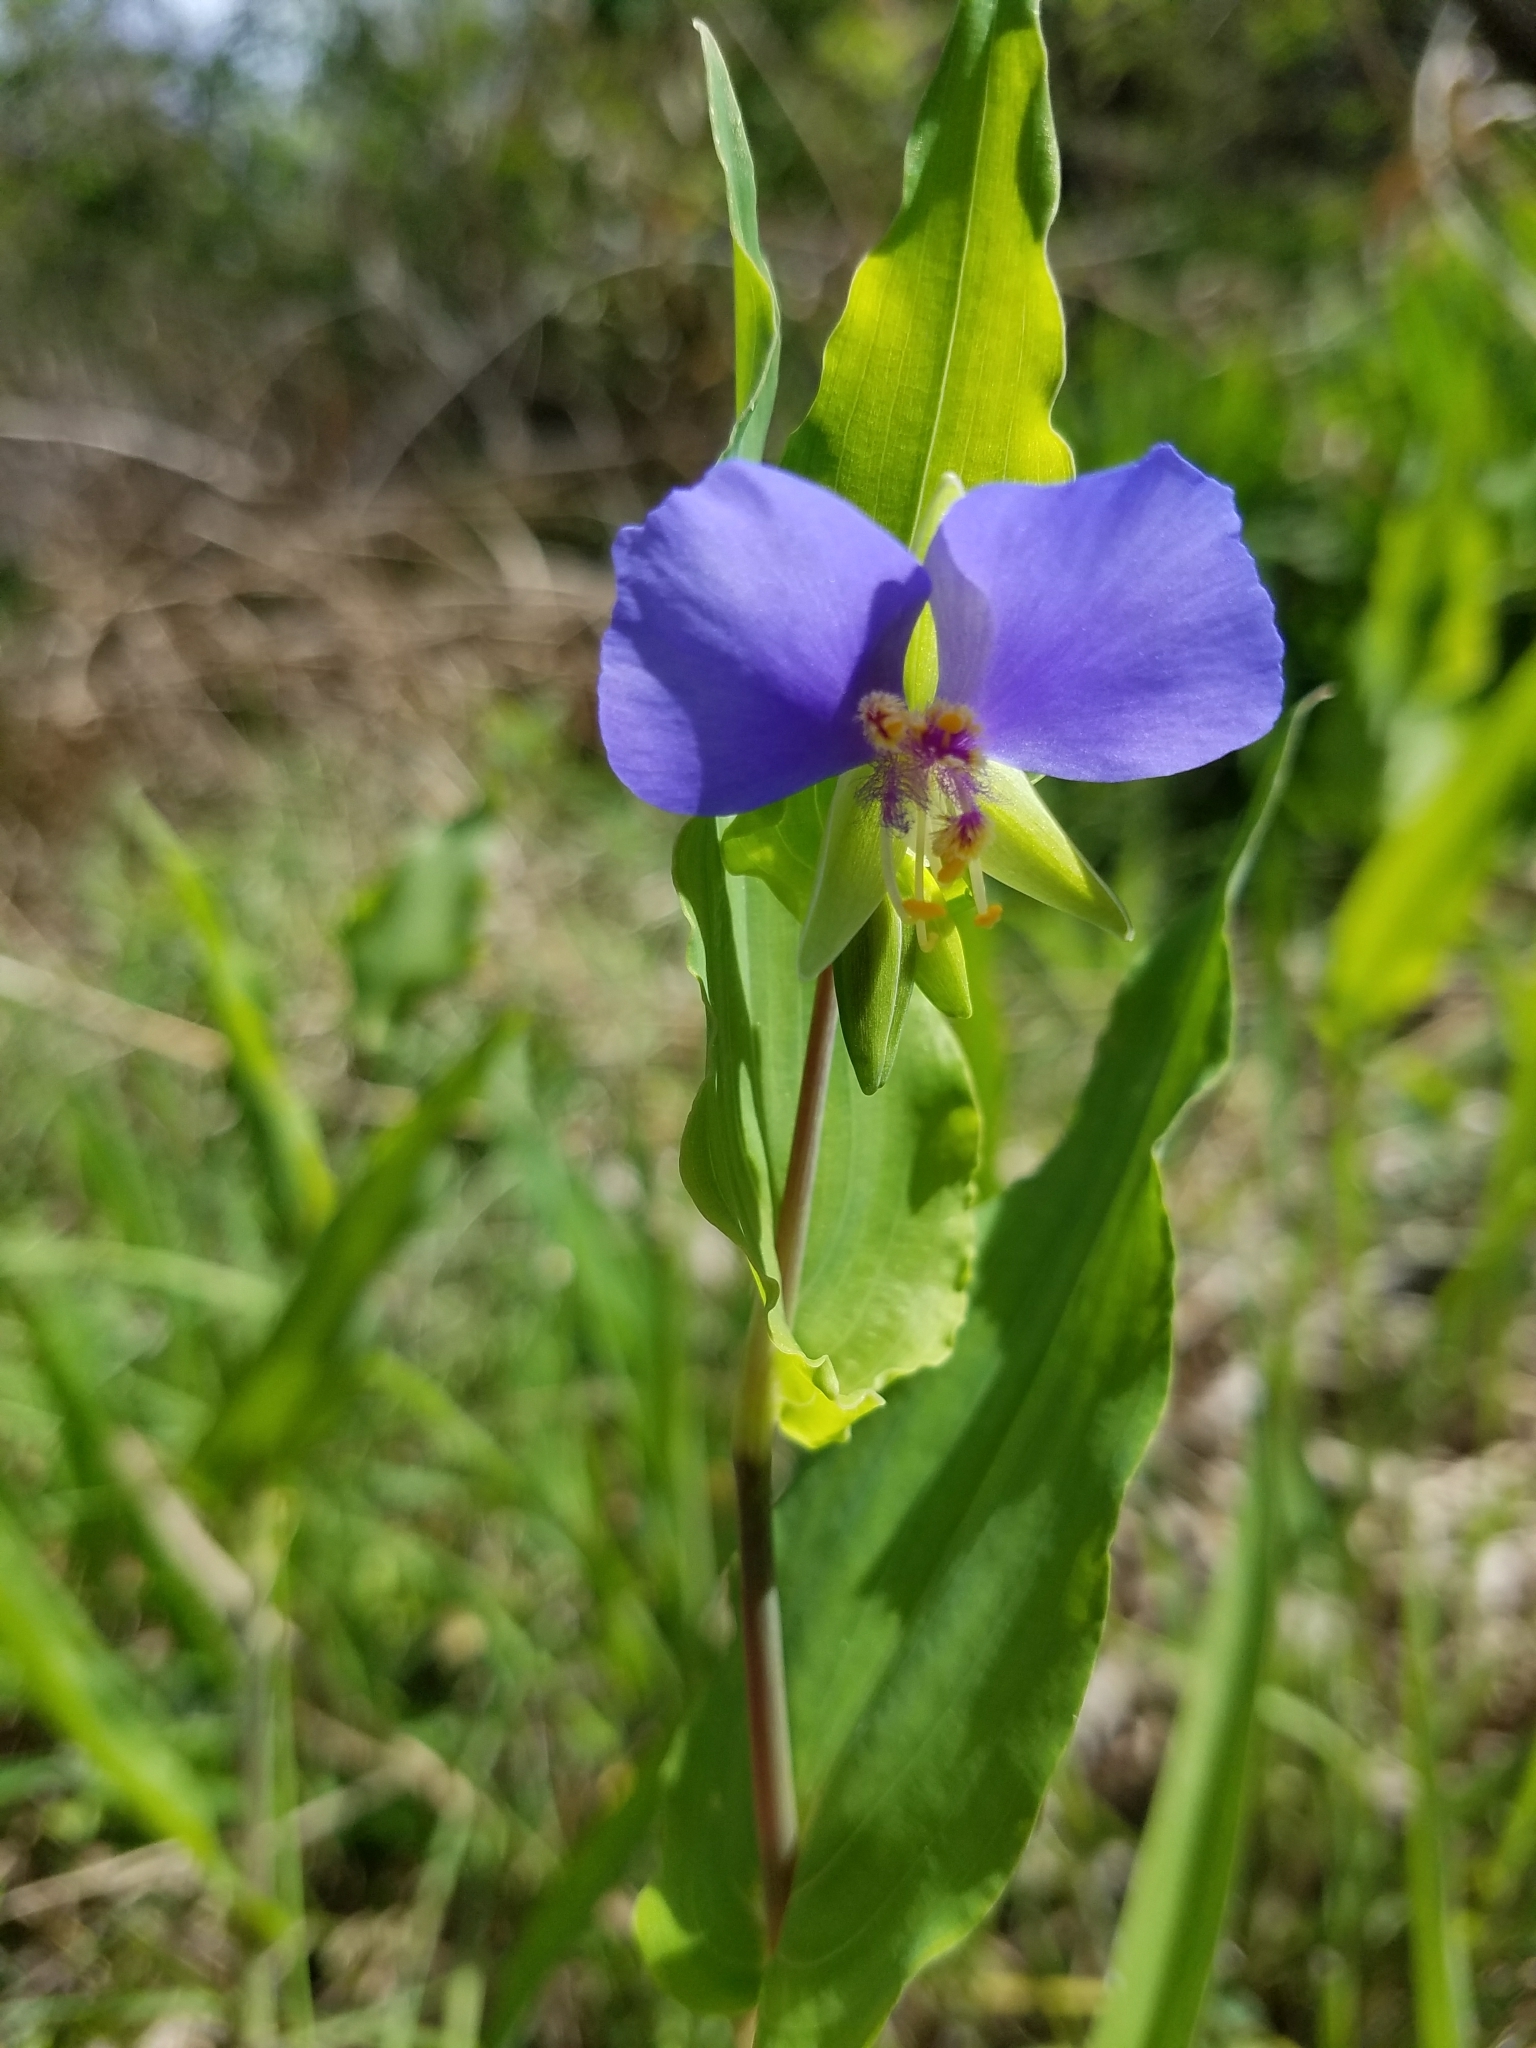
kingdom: Plantae
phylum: Tracheophyta
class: Liliopsida
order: Commelinales
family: Commelinaceae
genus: Tinantia
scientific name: Tinantia anomala
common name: False dayflower
